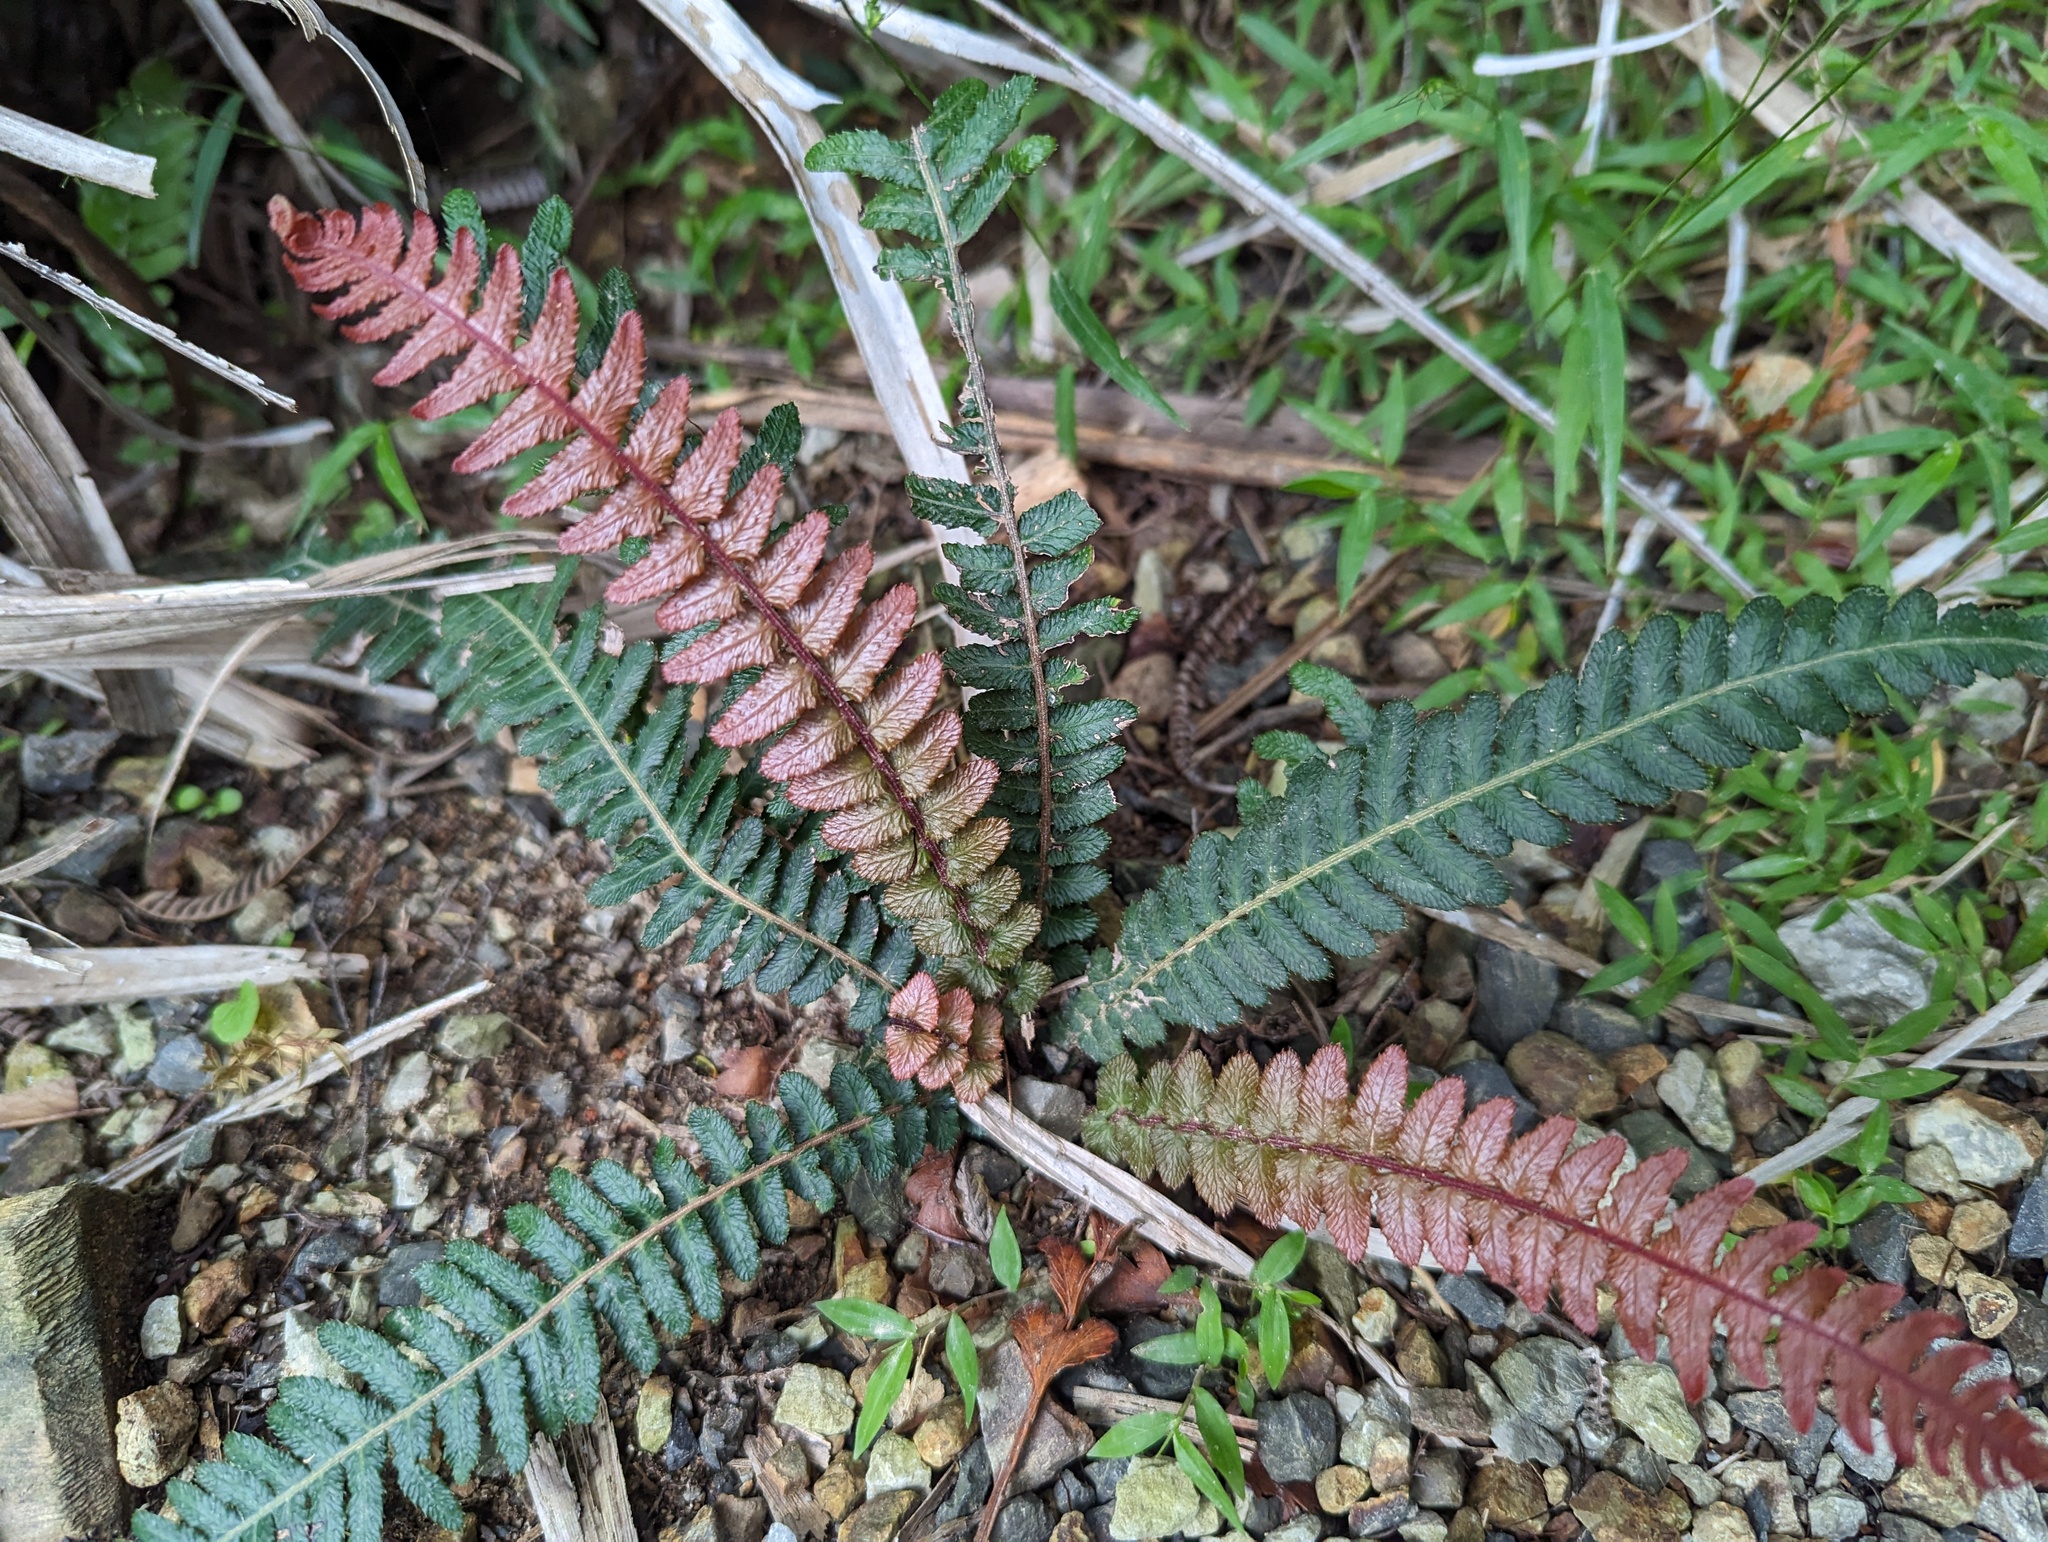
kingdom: Plantae
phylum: Tracheophyta
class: Polypodiopsida
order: Polypodiales
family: Blechnaceae
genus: Doodia
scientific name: Doodia australis
